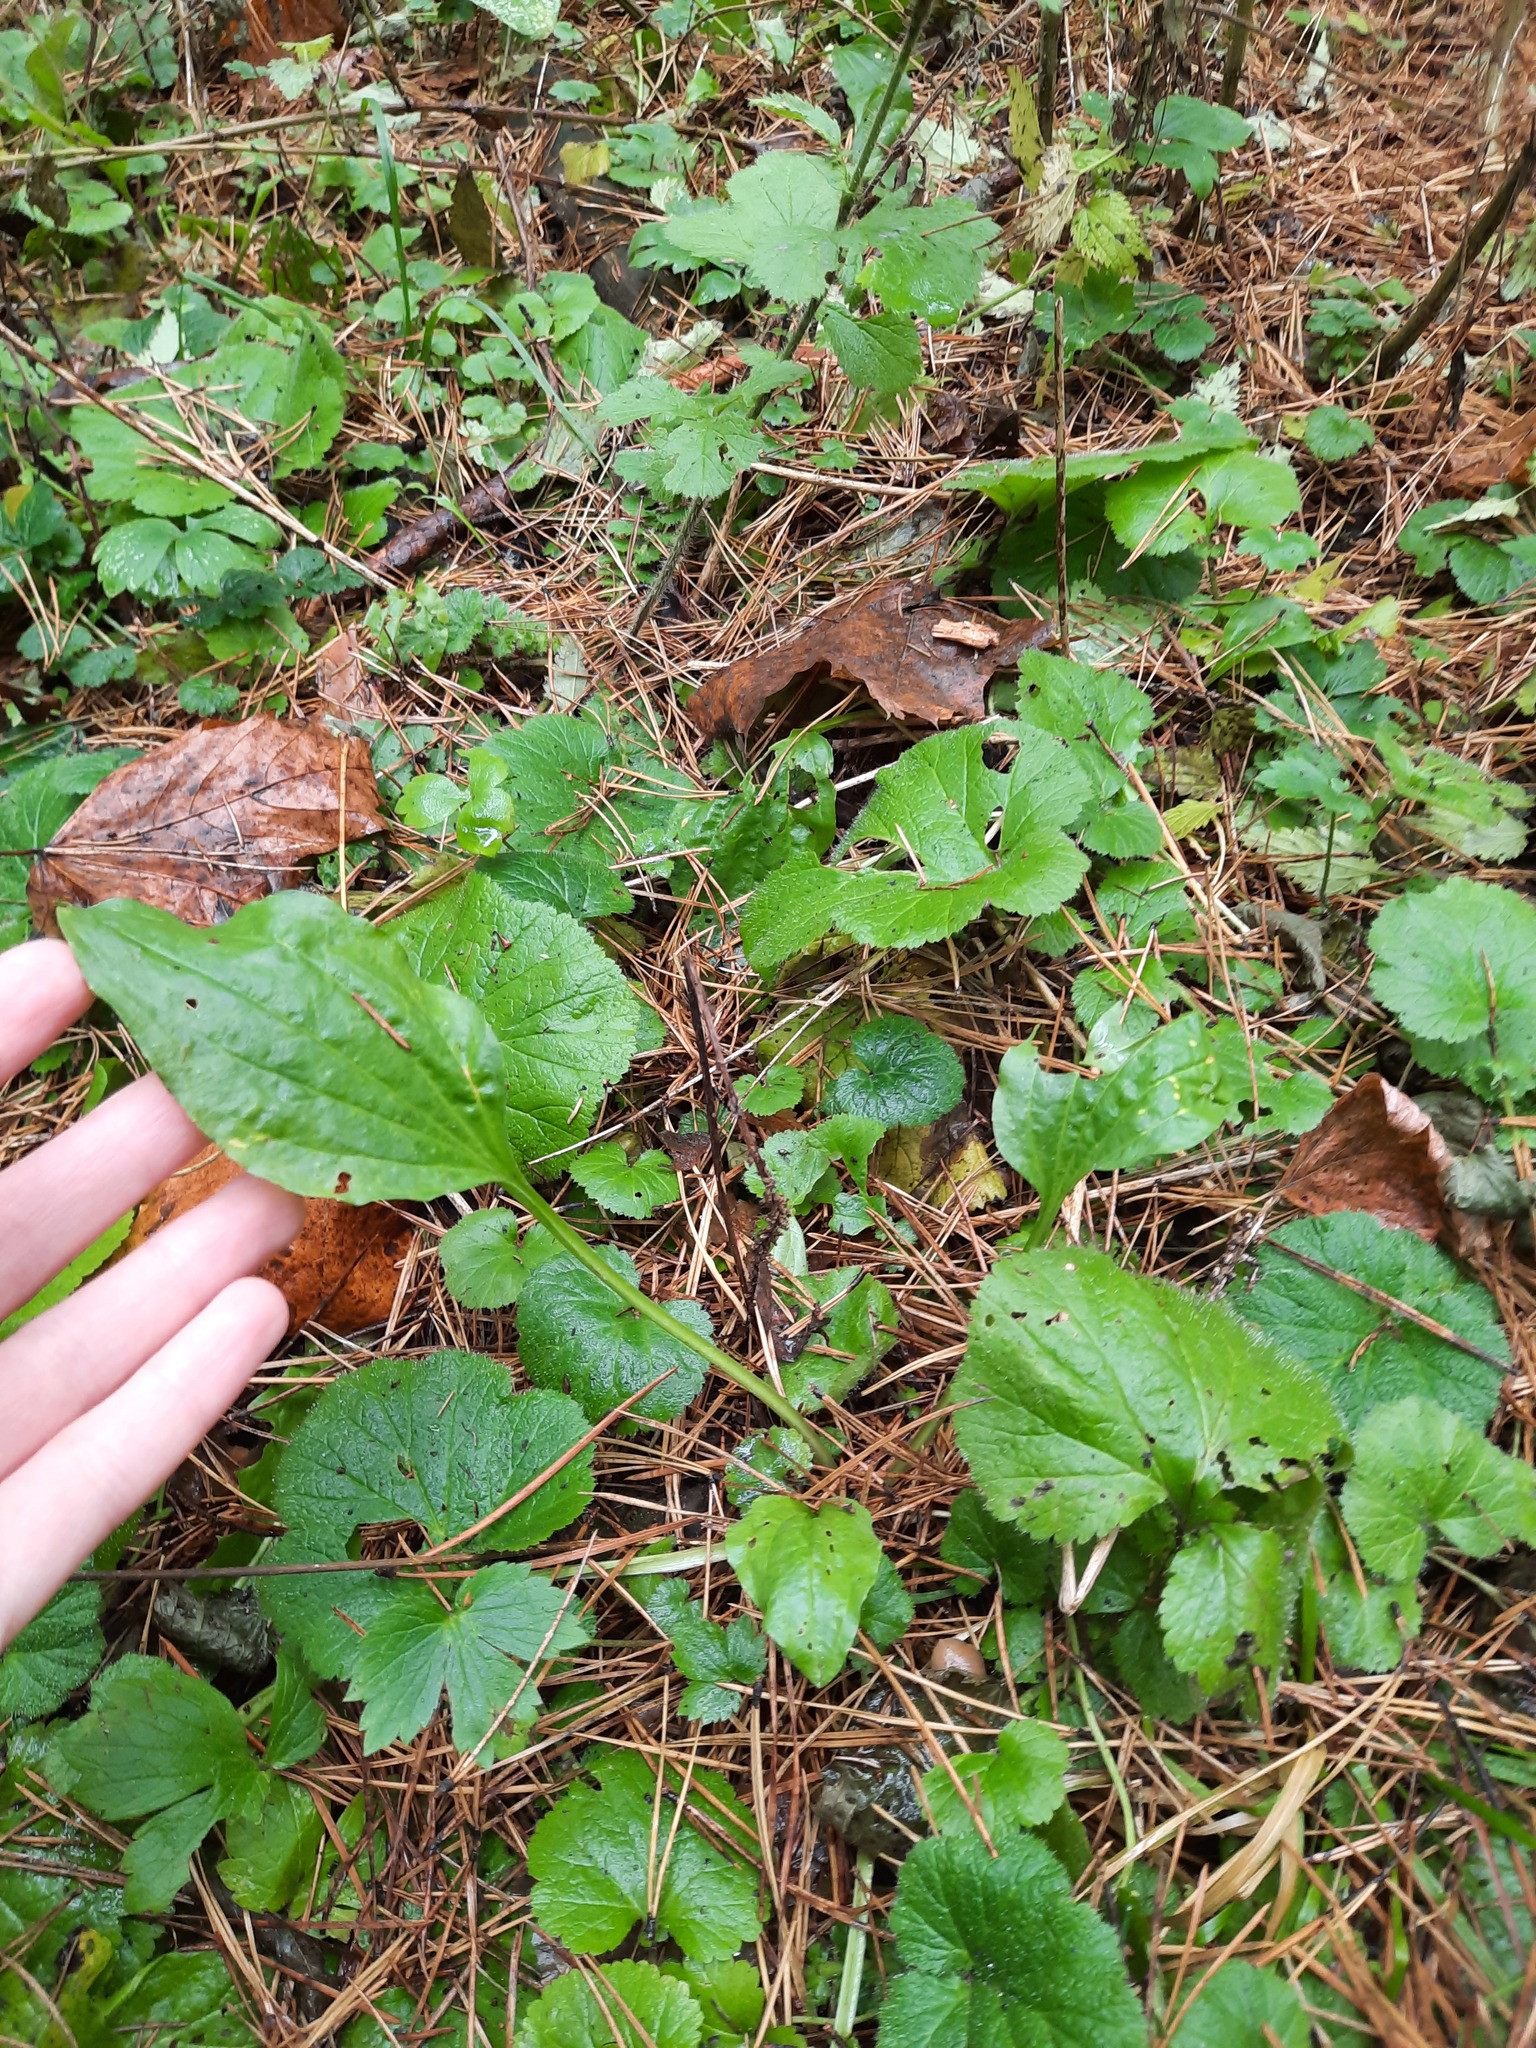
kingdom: Plantae
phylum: Tracheophyta
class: Magnoliopsida
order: Lamiales
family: Plantaginaceae
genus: Plantago
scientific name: Plantago major
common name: Common plantain
